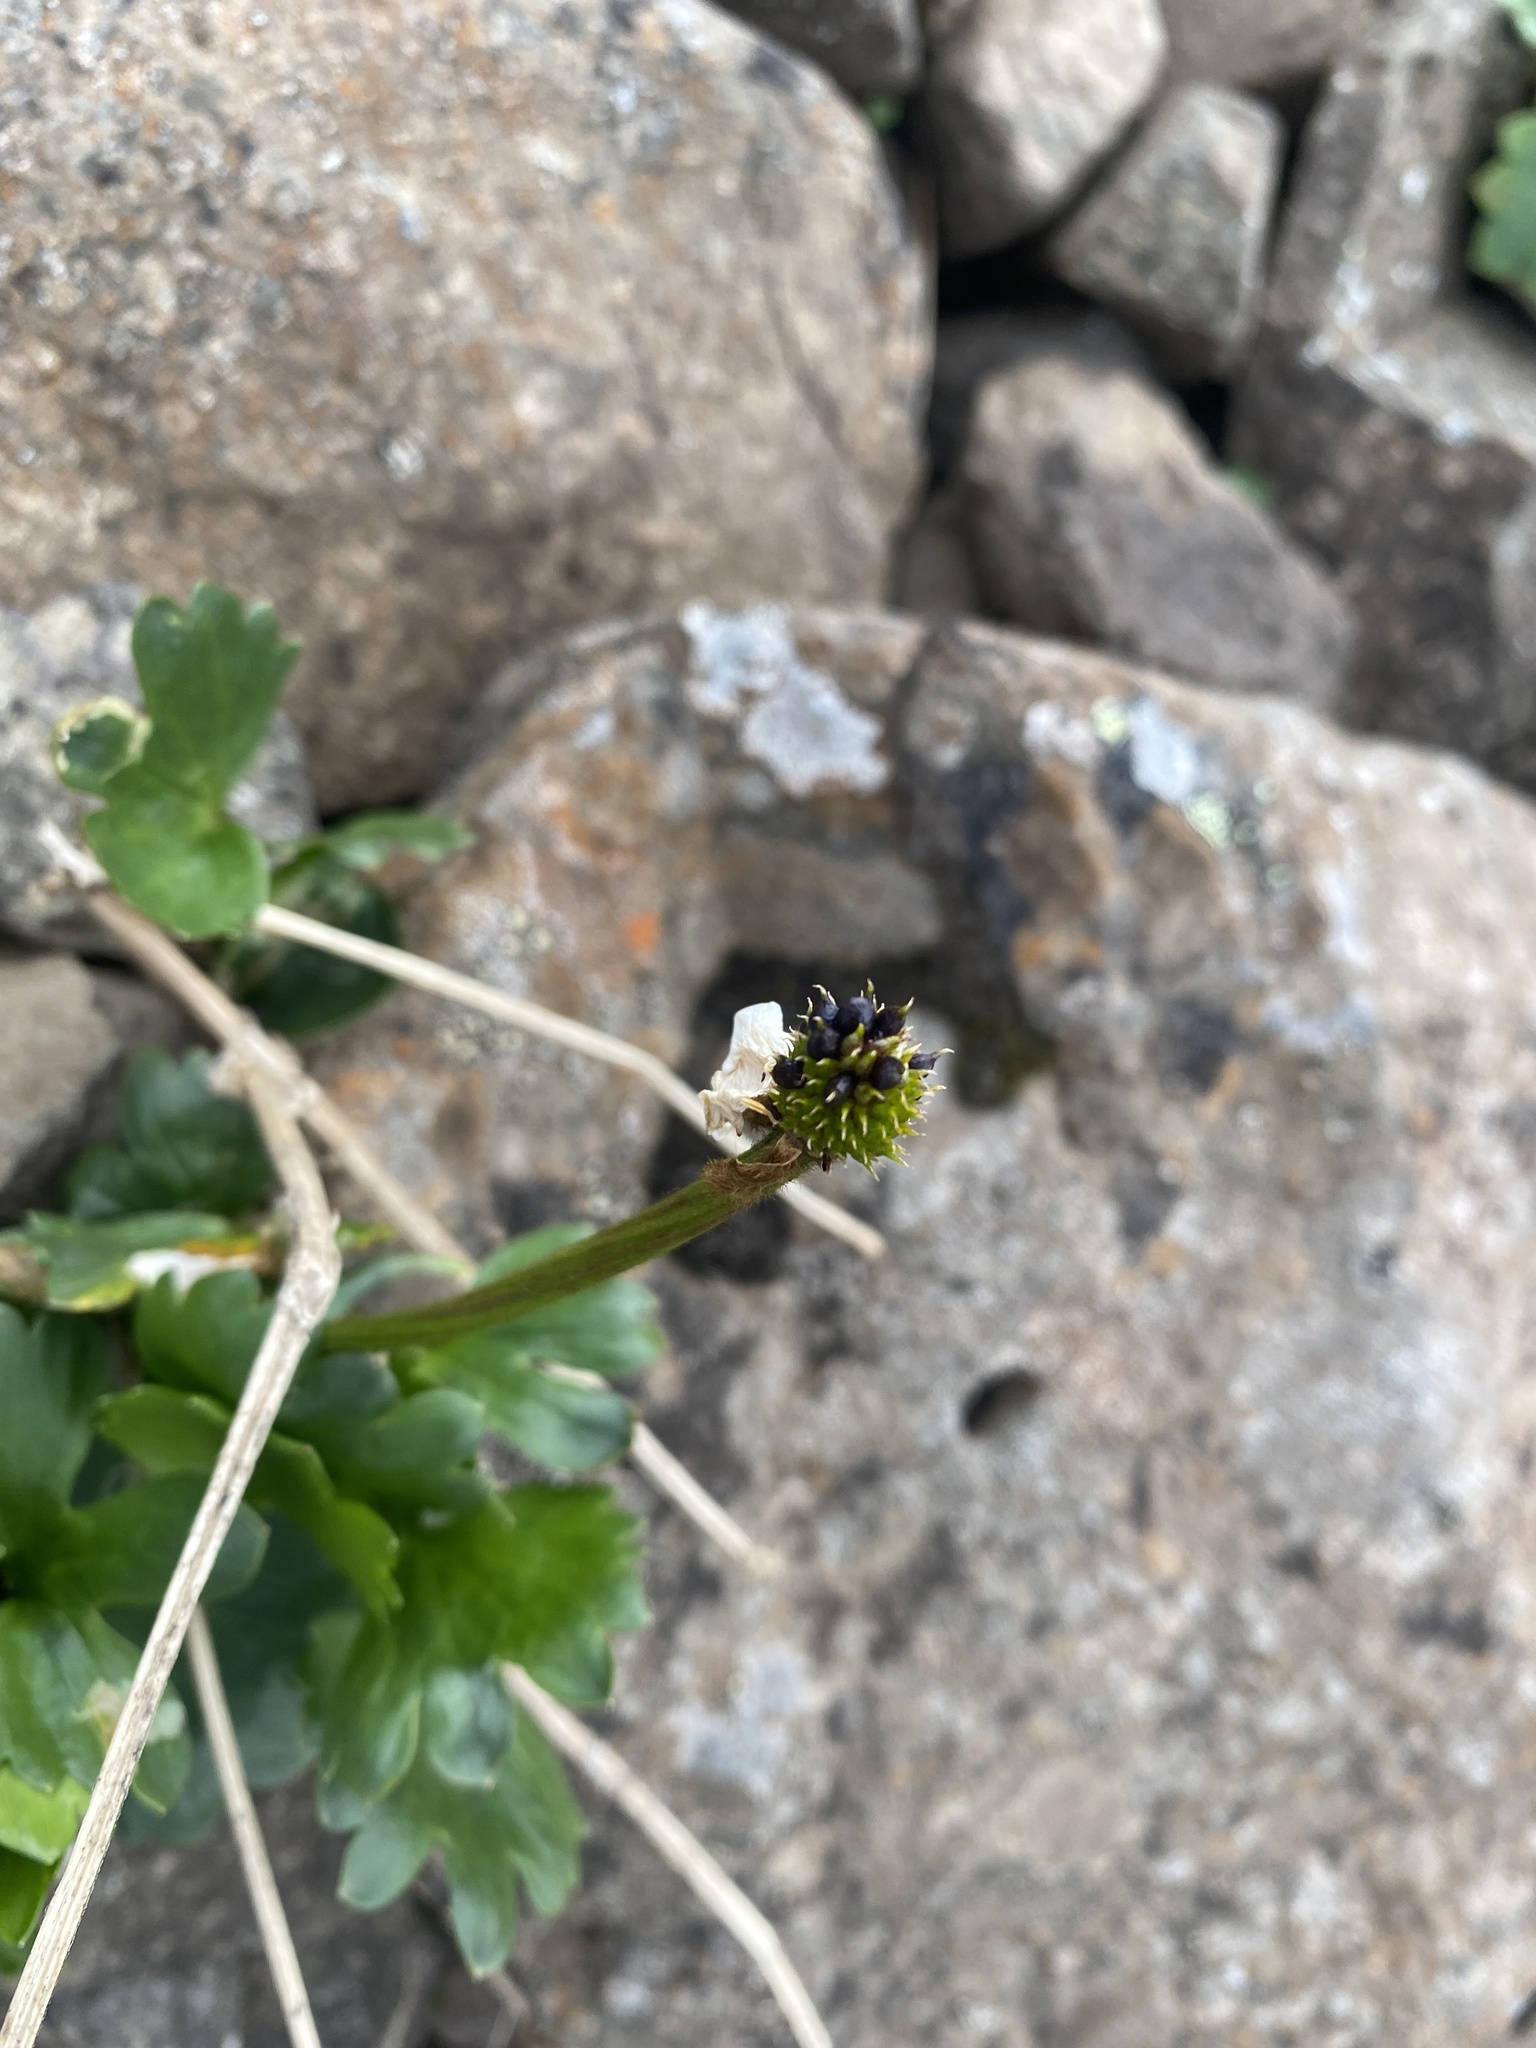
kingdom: Plantae
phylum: Tracheophyta
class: Magnoliopsida
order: Ranunculales
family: Ranunculaceae
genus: Ranunculus
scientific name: Ranunculus sulphureus
